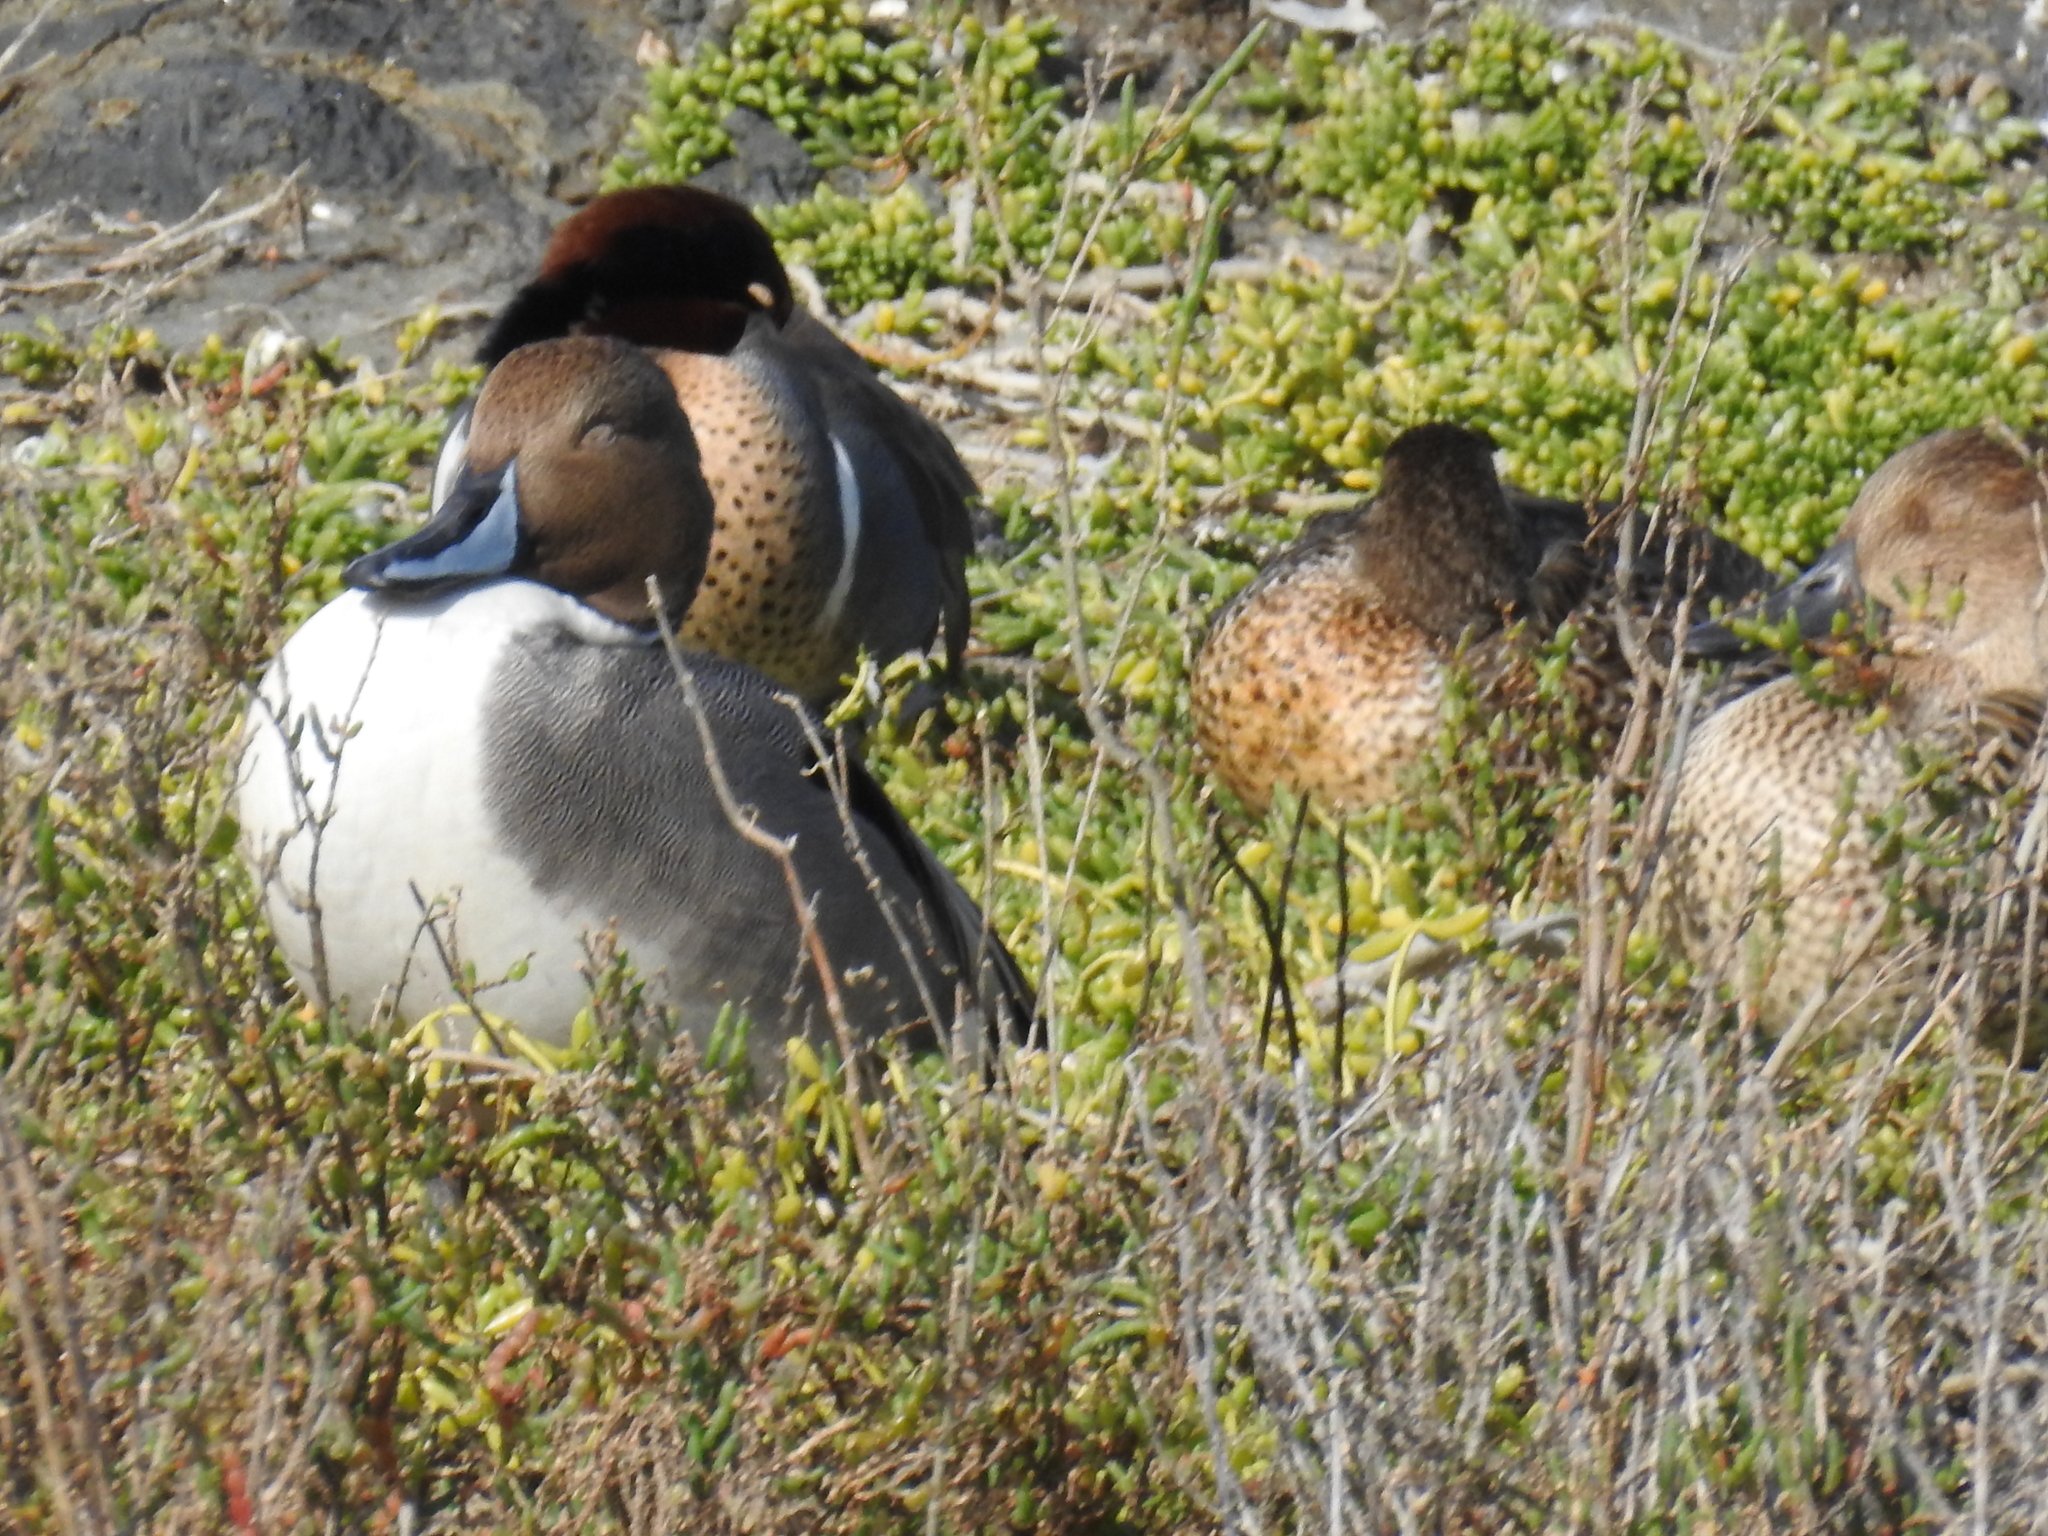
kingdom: Animalia
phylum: Chordata
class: Aves
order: Anseriformes
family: Anatidae
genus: Anas
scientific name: Anas crecca
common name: Eurasian teal
